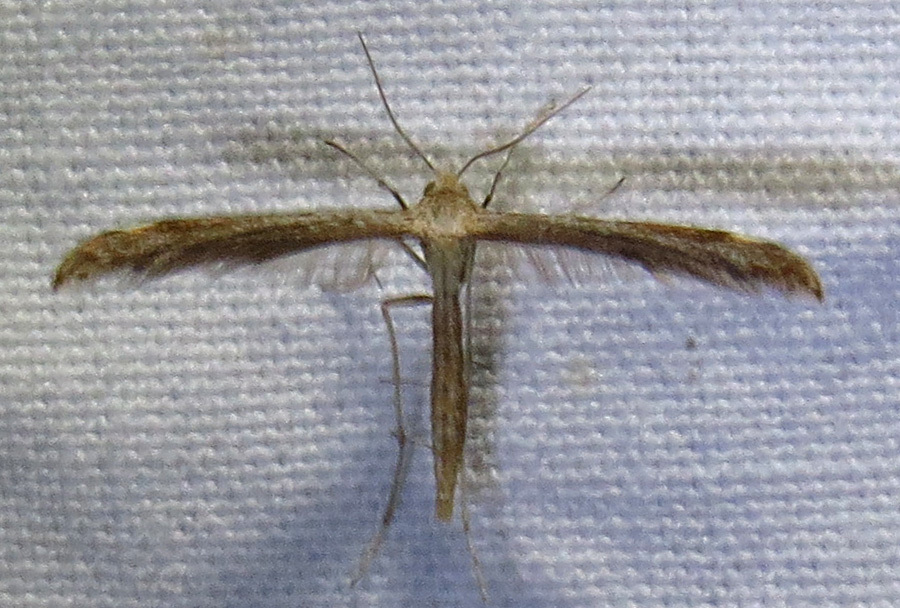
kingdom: Animalia
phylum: Arthropoda
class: Insecta
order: Lepidoptera
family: Pterophoridae
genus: Lioptilodes
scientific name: Lioptilodes albistriolatus
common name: Moth
